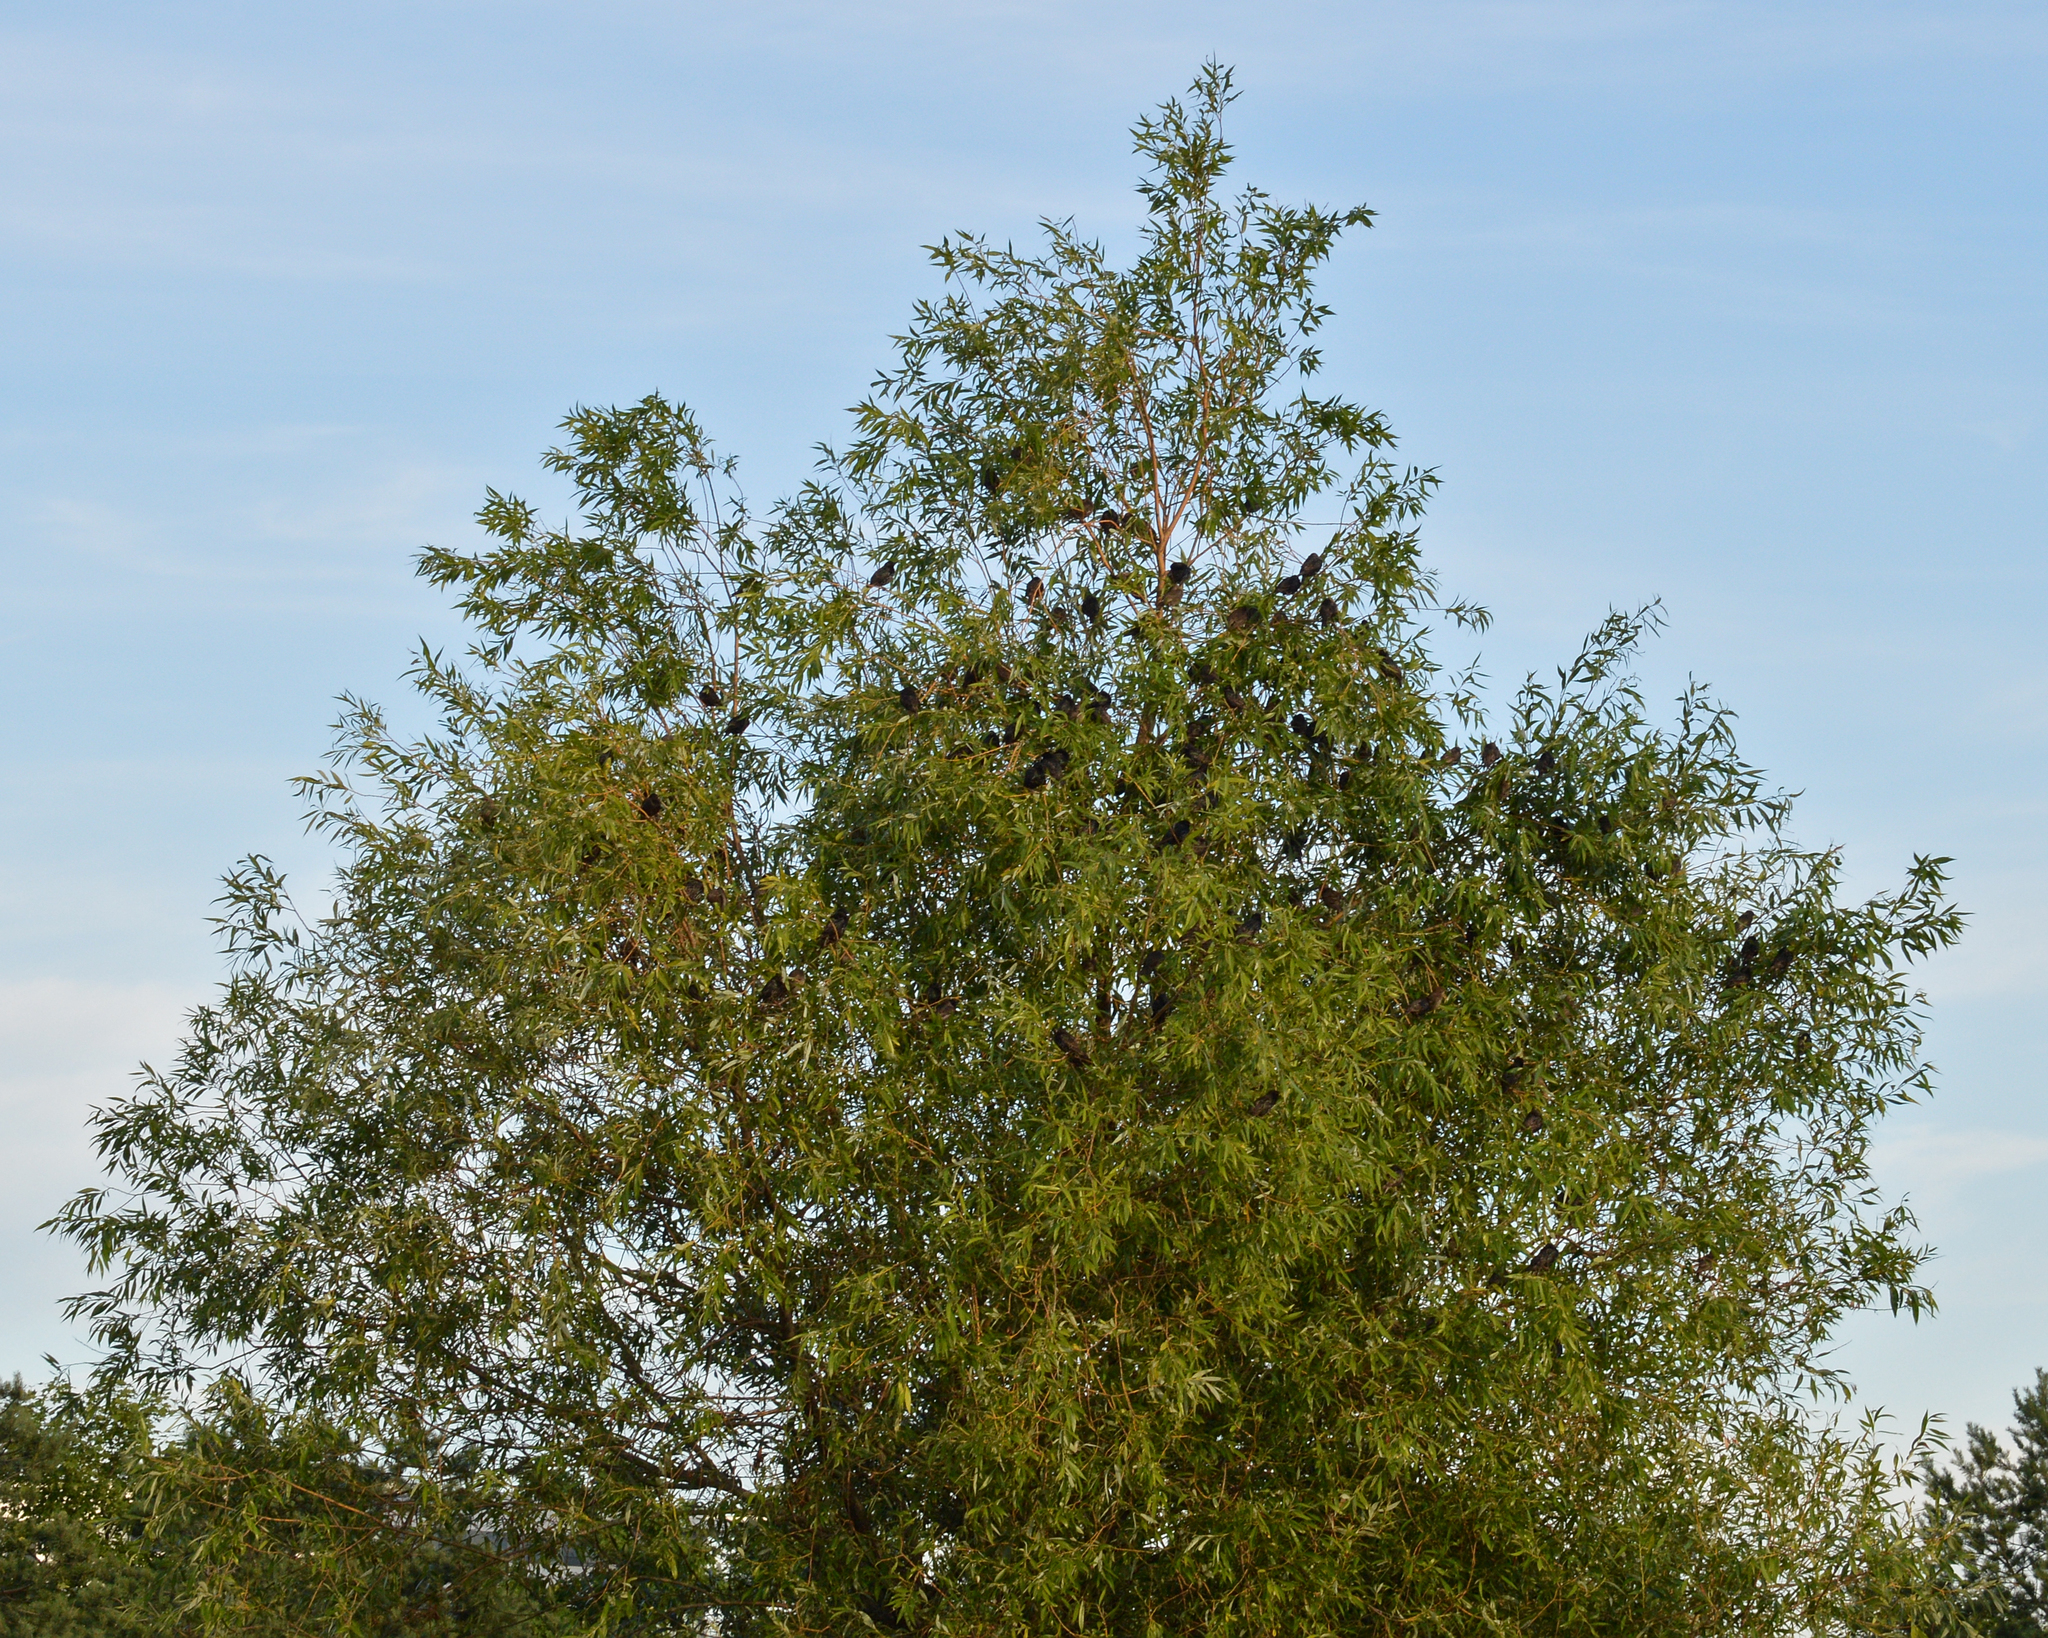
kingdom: Animalia
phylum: Chordata
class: Aves
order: Passeriformes
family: Sturnidae
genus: Sturnus
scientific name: Sturnus vulgaris
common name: Common starling
